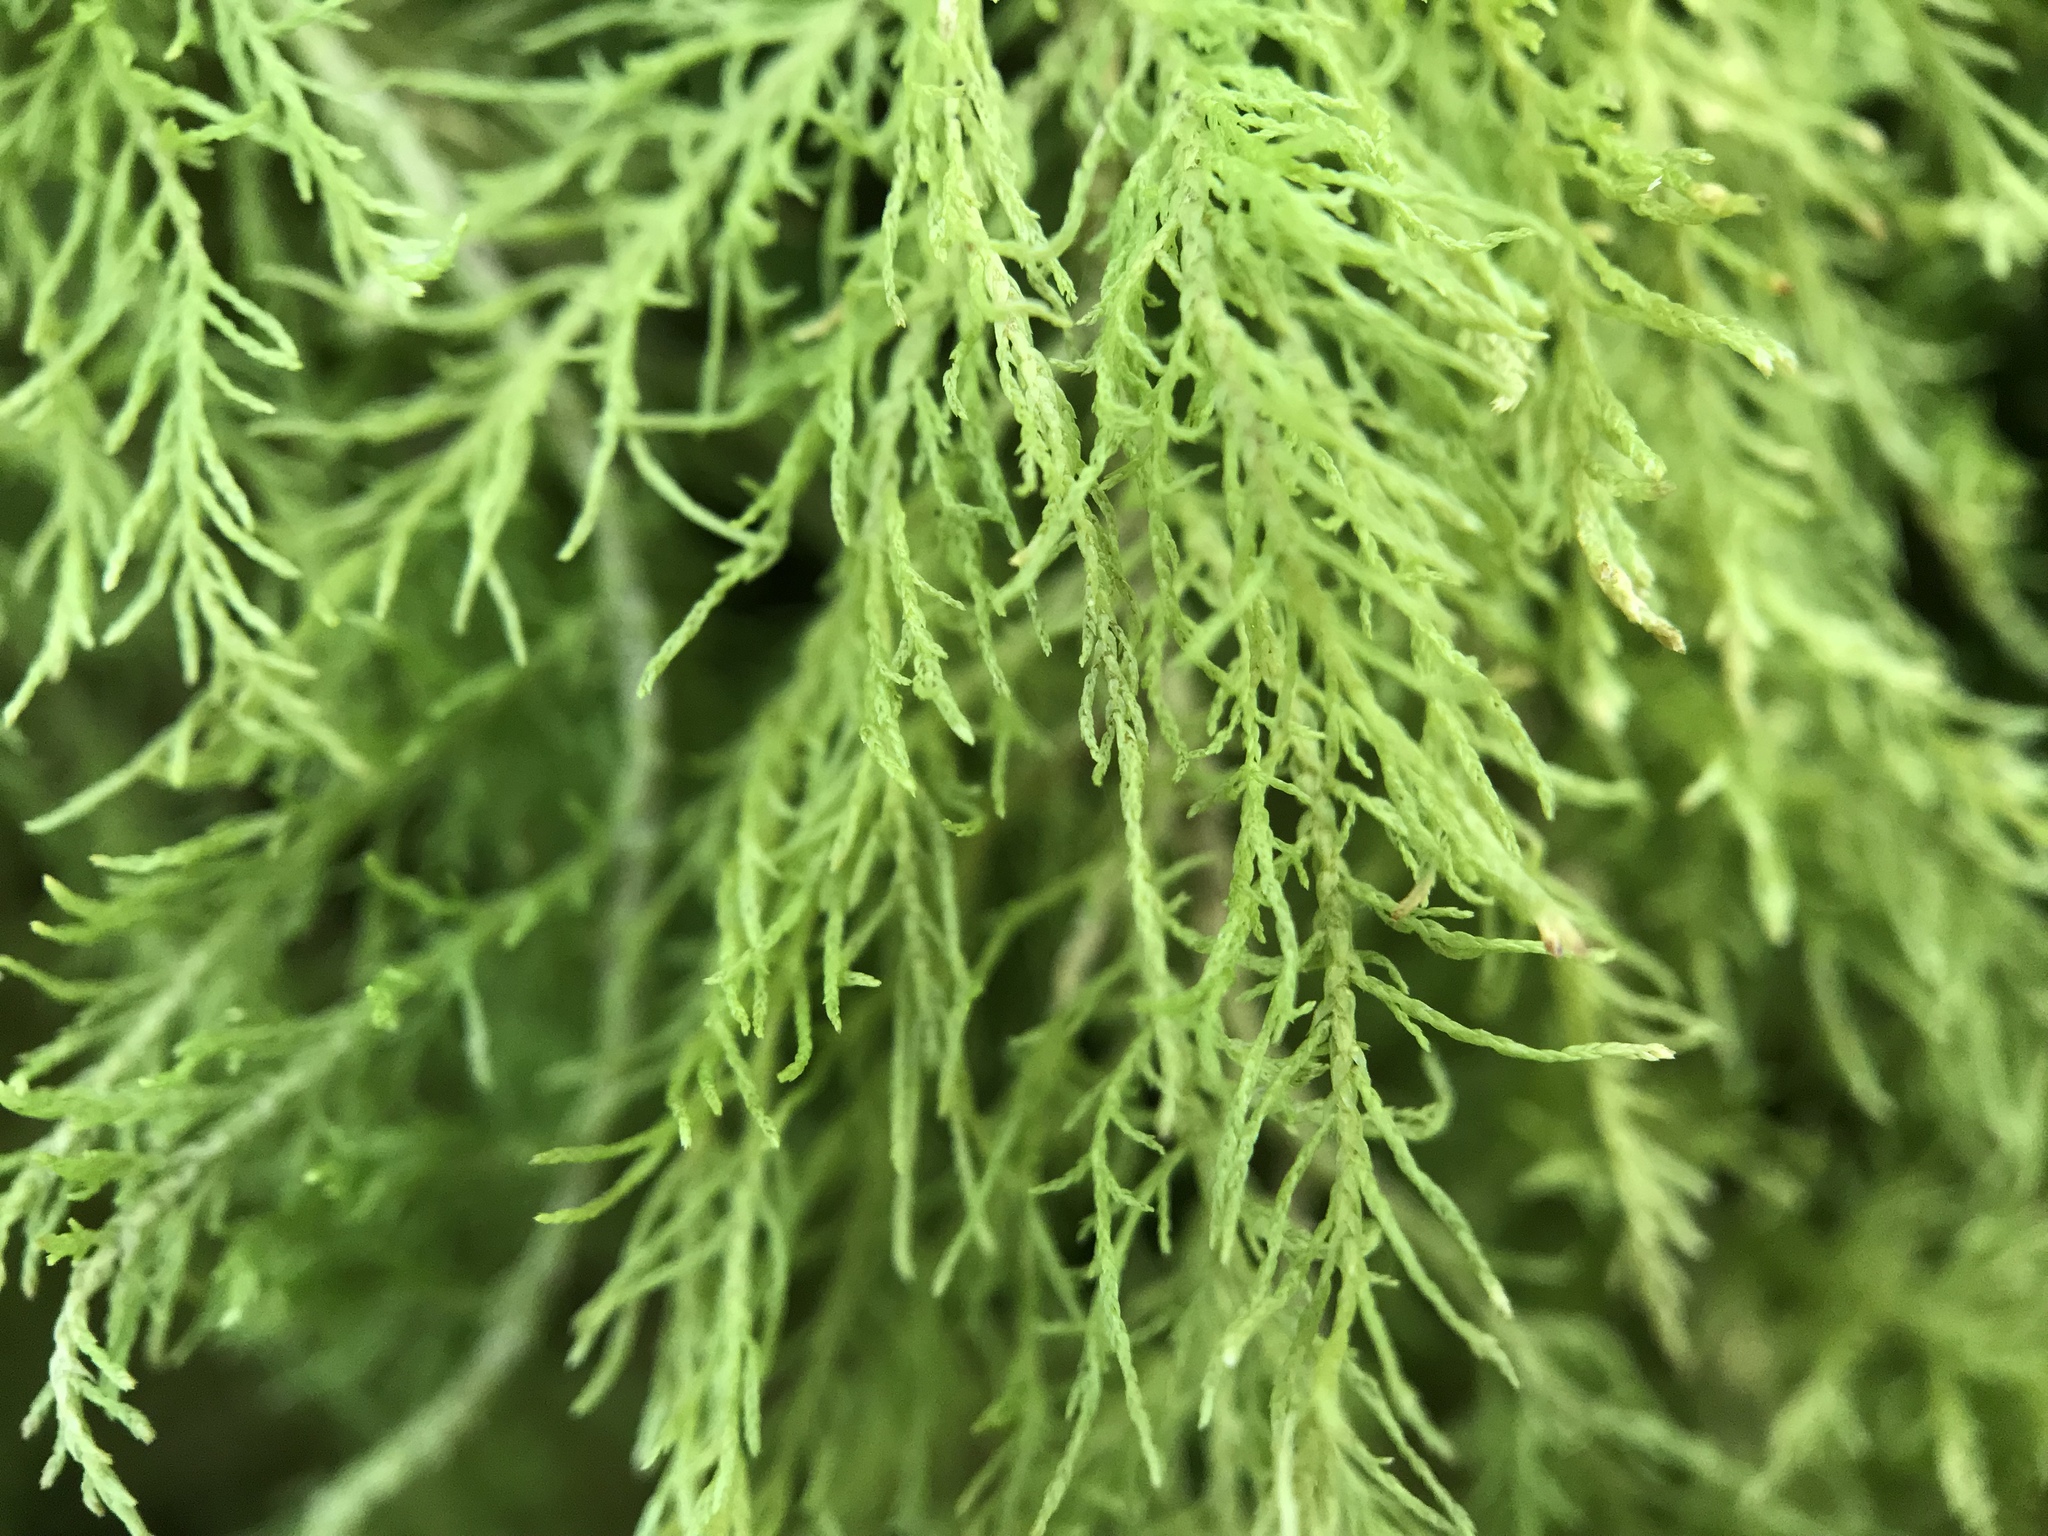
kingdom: Plantae
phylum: Bryophyta
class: Bryopsida
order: Hypnales
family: Thuidiaceae
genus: Thuidium
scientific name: Thuidium tamariscinum
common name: Common tamarisk-moss
